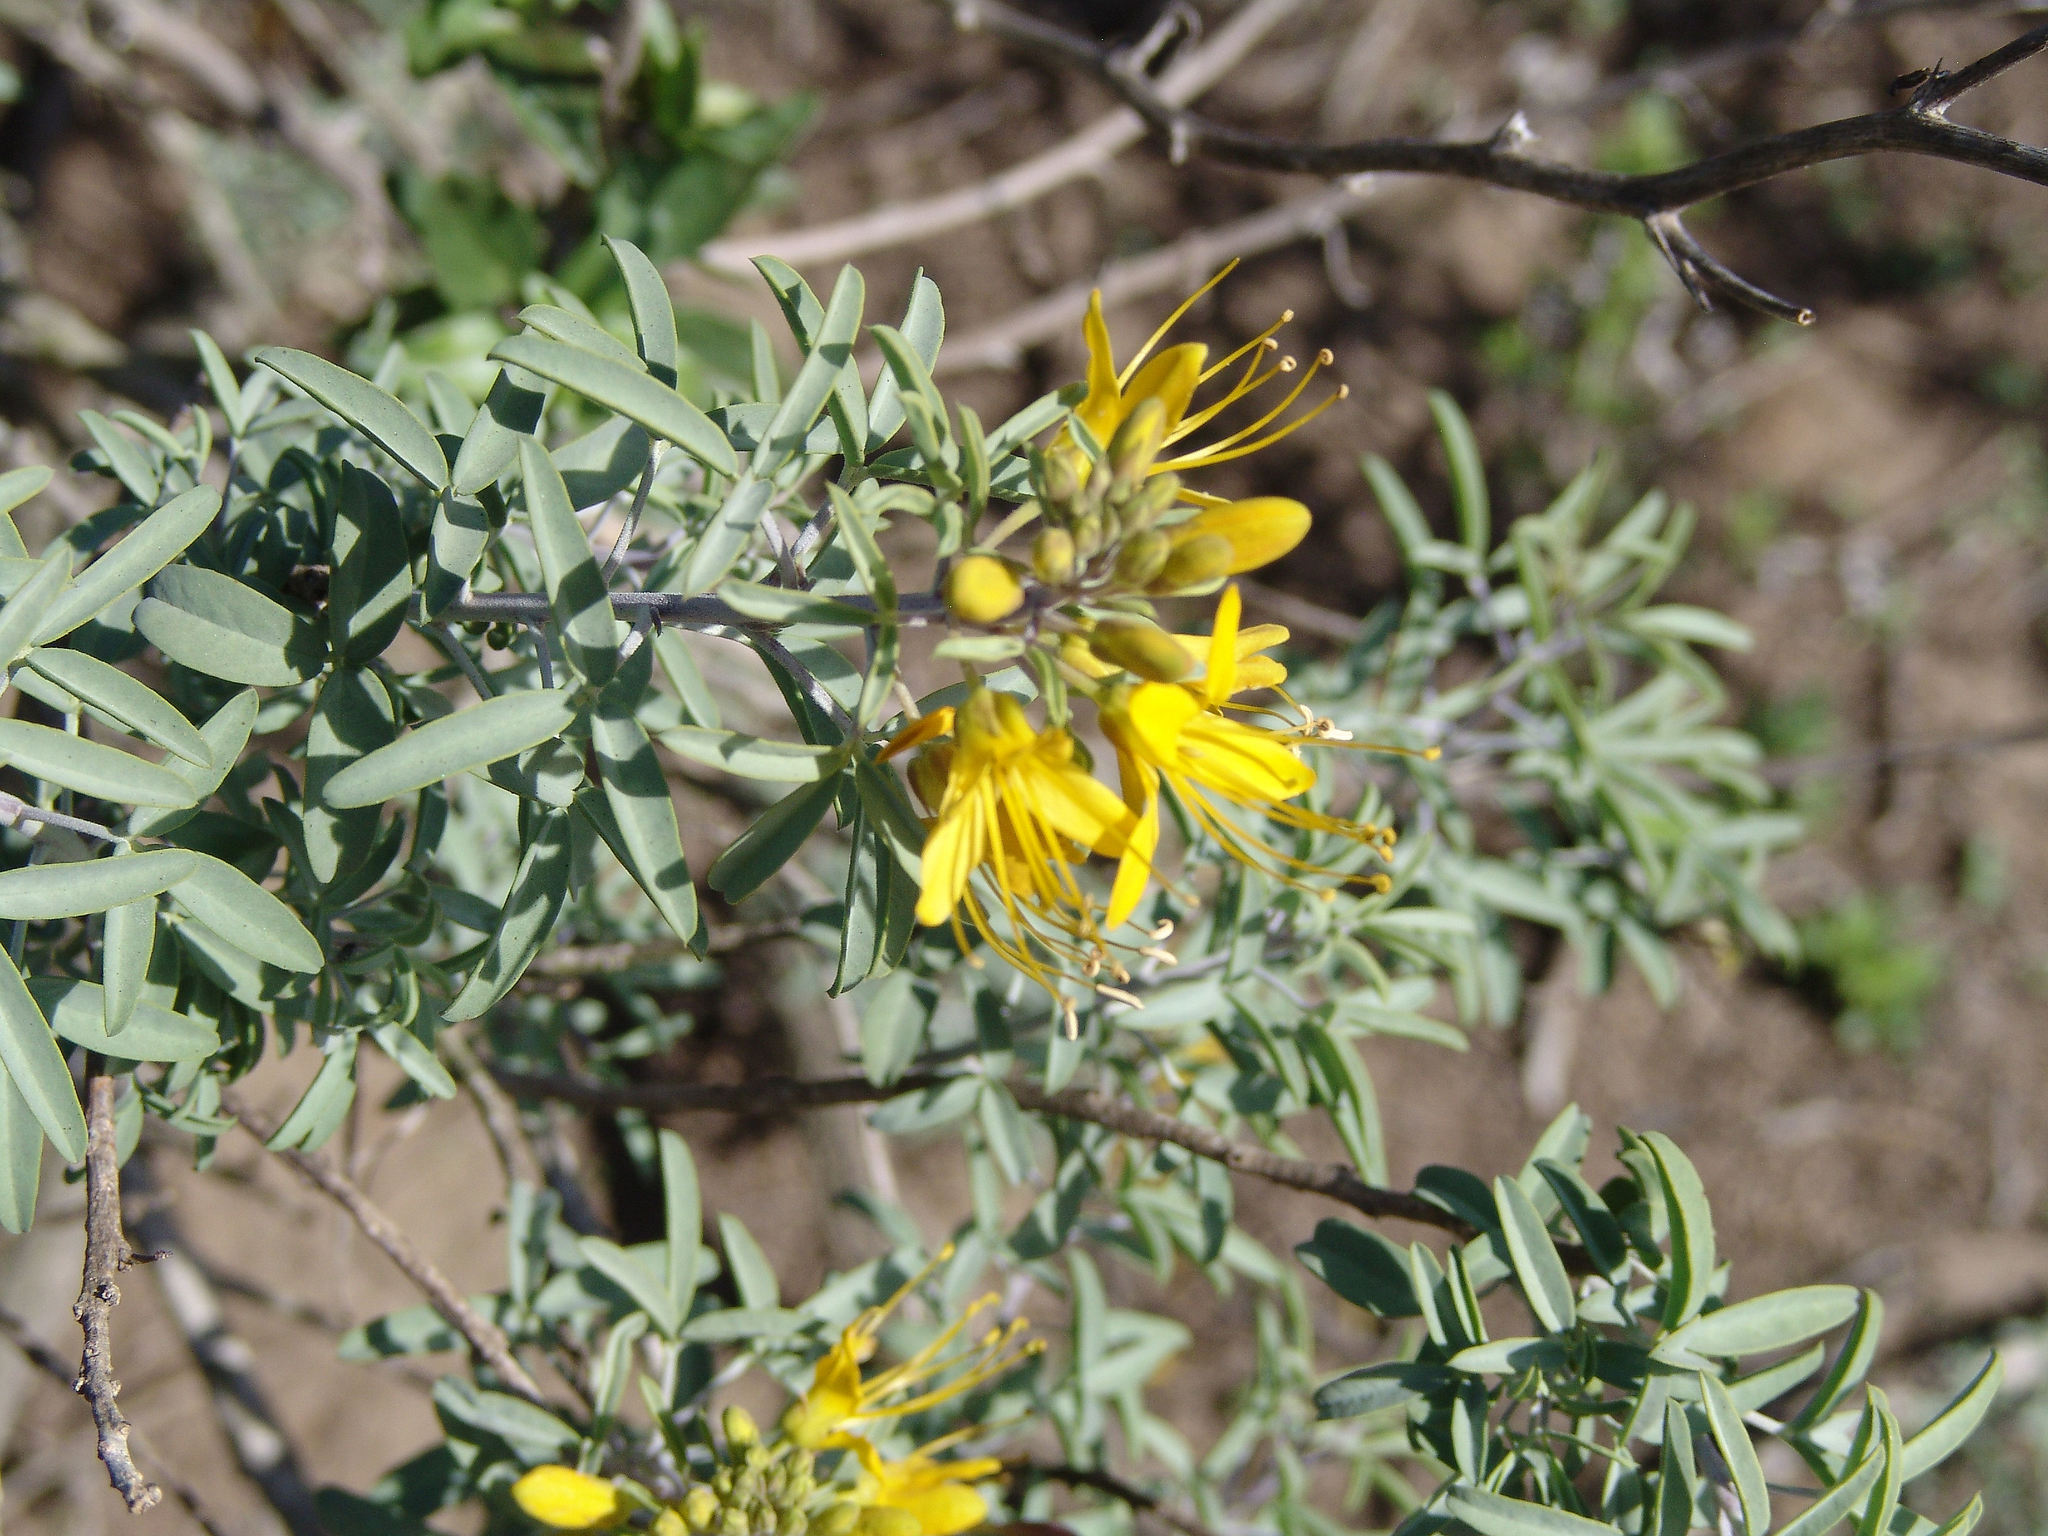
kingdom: Plantae
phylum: Tracheophyta
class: Magnoliopsida
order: Brassicales
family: Cleomaceae
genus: Cleomella
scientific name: Cleomella arborea
